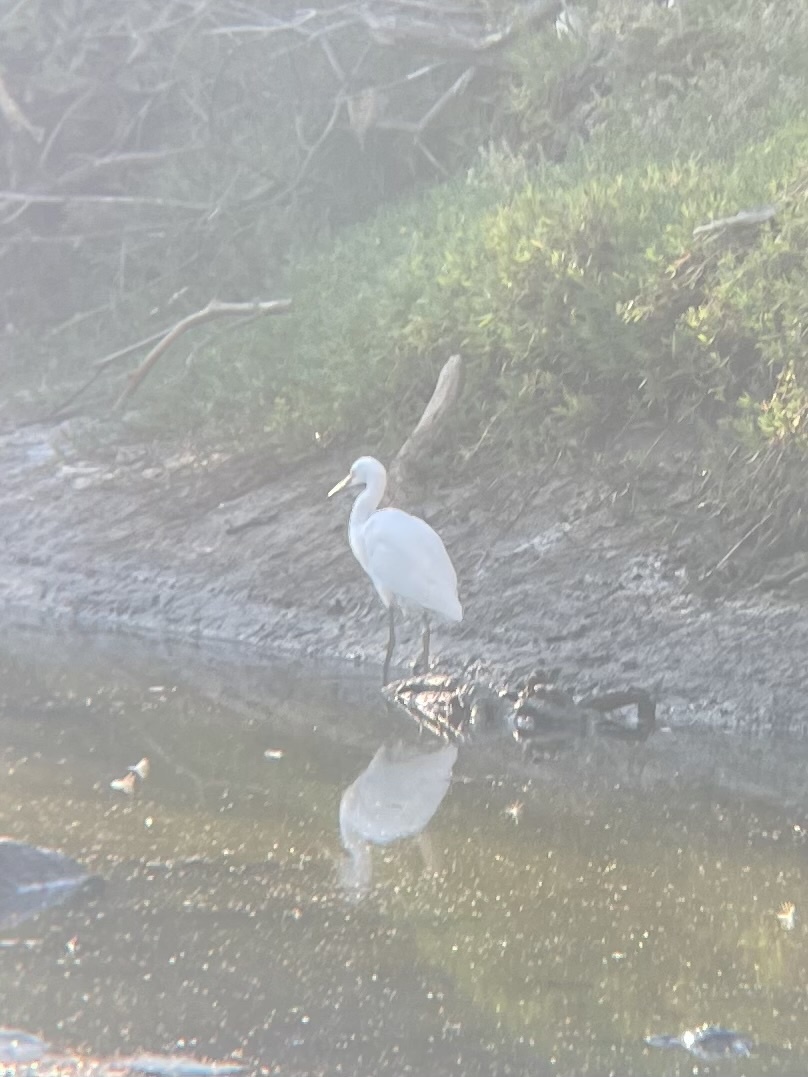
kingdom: Animalia
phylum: Chordata
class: Aves
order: Pelecaniformes
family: Ardeidae
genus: Ardea
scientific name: Ardea alba
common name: Great egret
